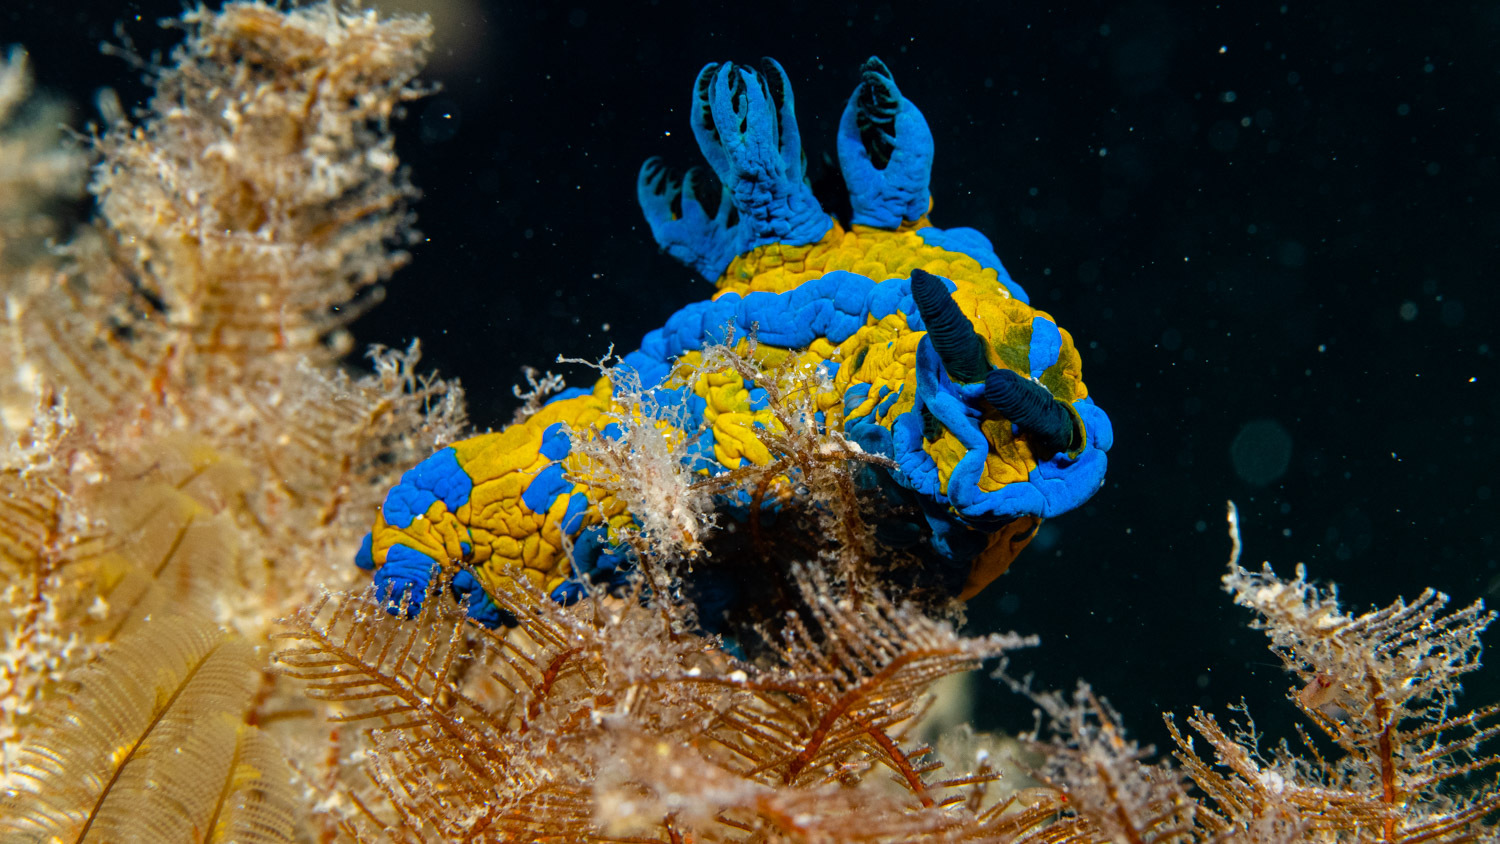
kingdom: Animalia
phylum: Mollusca
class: Gastropoda
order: Nudibranchia
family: Polyceridae
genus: Tambja
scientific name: Tambja verconis
